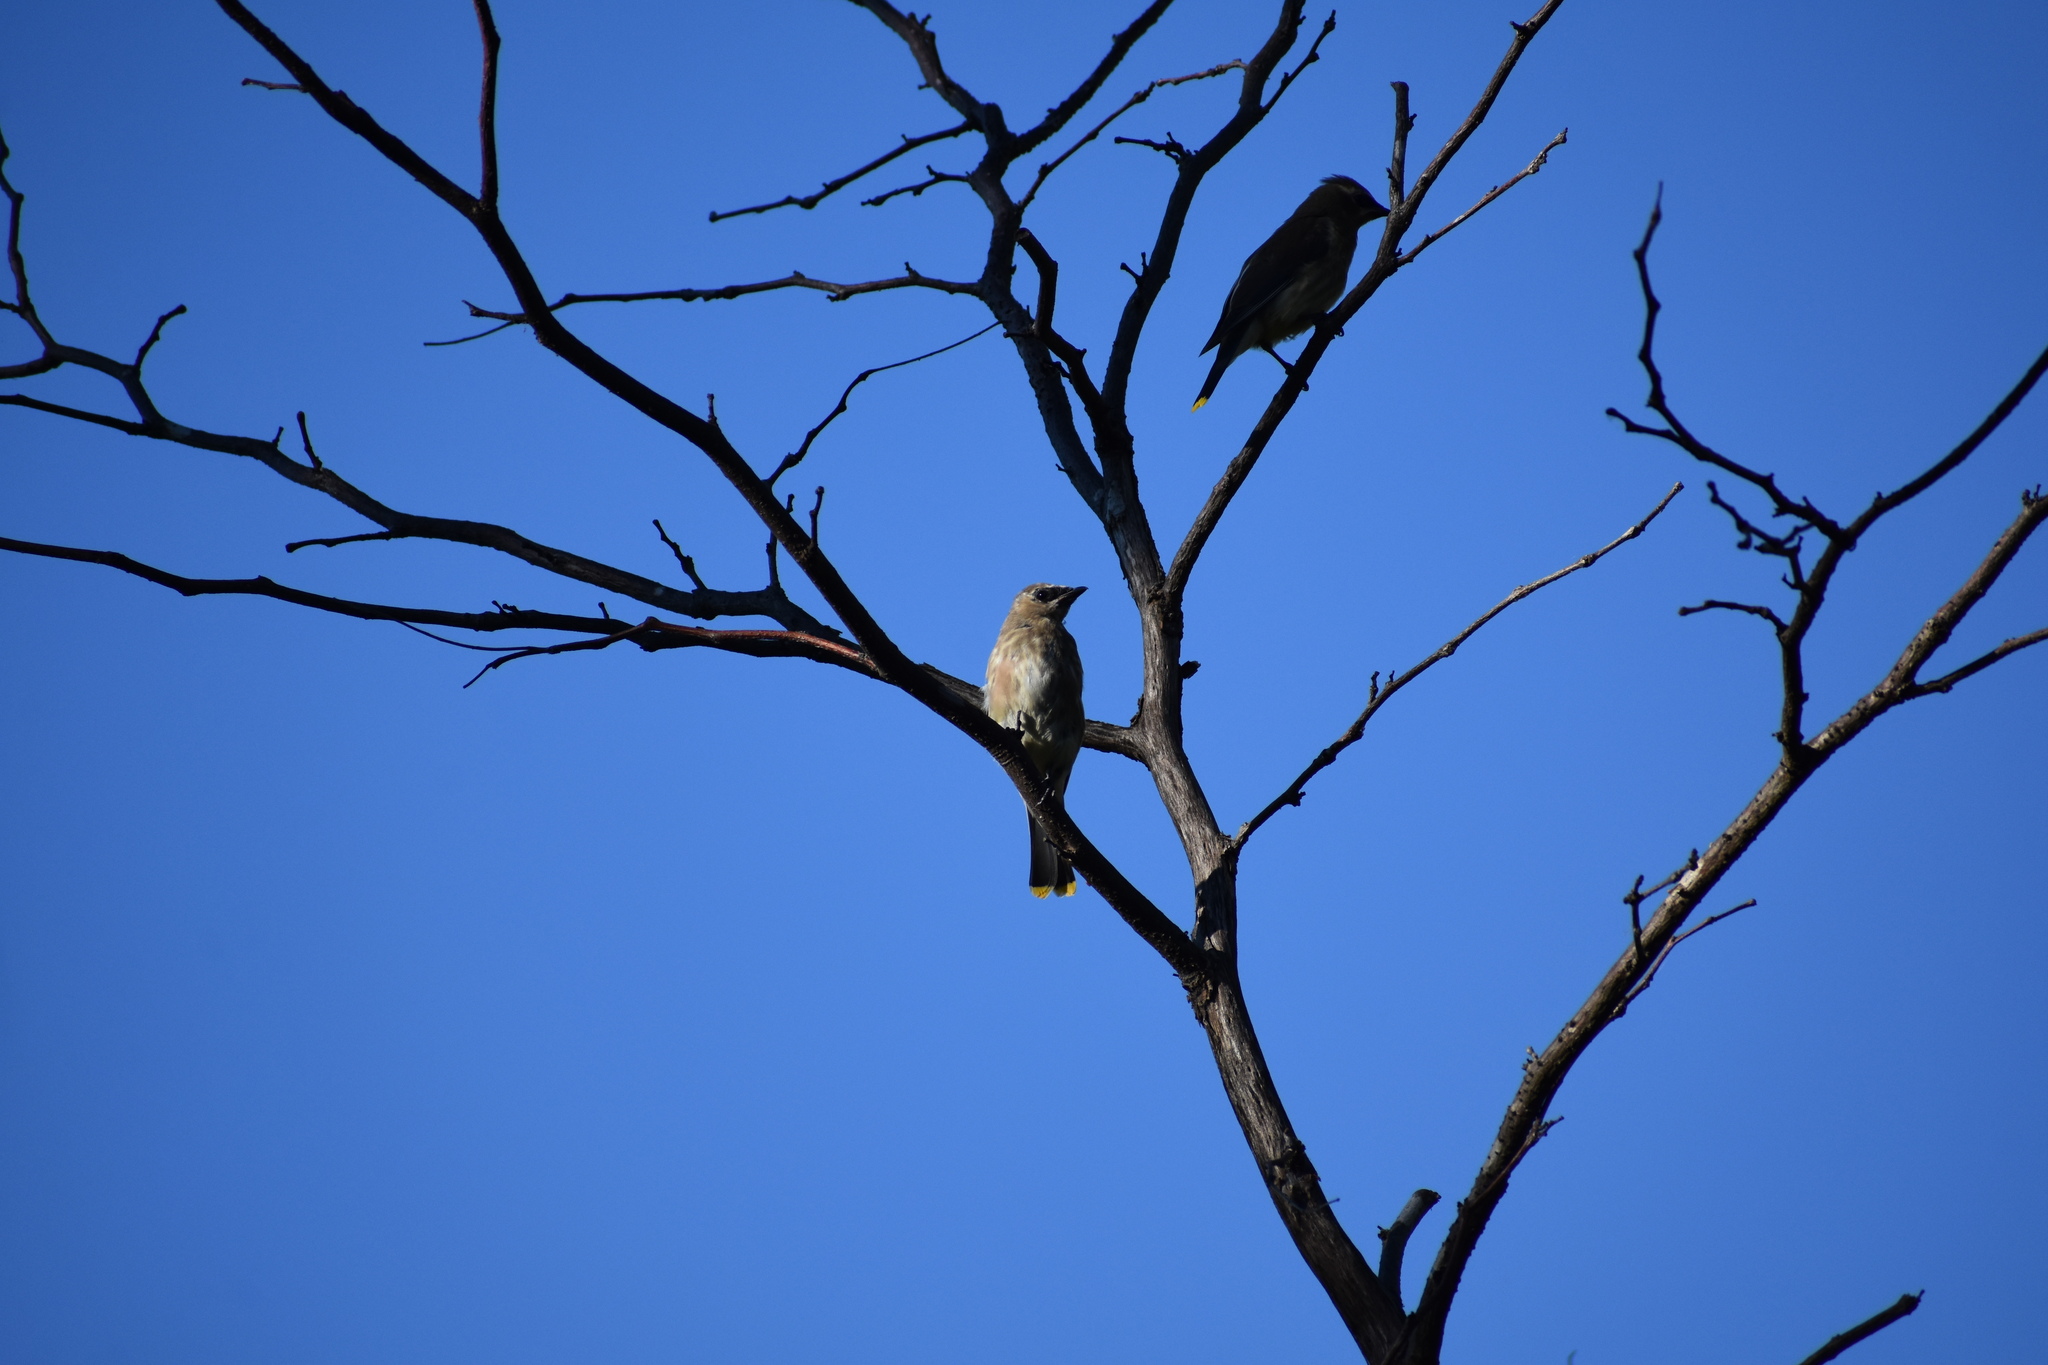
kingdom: Animalia
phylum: Chordata
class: Aves
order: Passeriformes
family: Bombycillidae
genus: Bombycilla
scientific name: Bombycilla cedrorum
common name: Cedar waxwing
